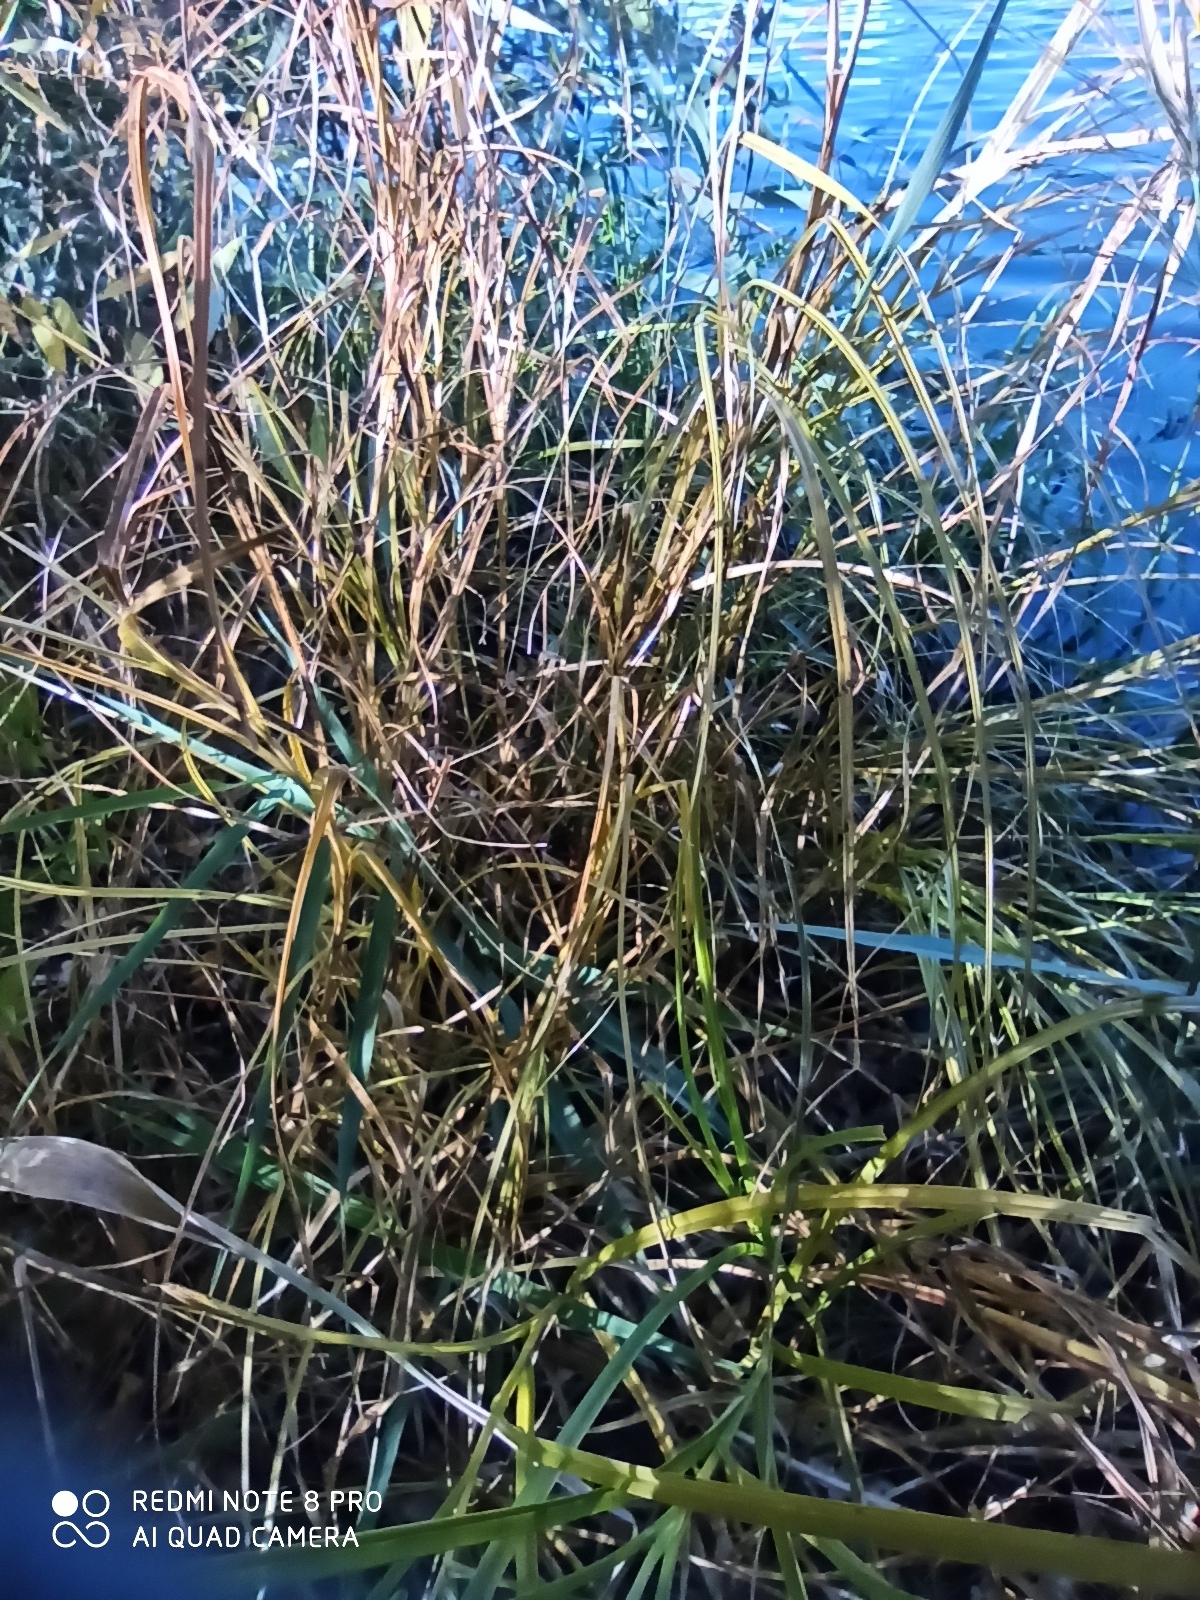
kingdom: Plantae
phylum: Tracheophyta
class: Liliopsida
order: Poales
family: Cyperaceae
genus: Bolboschoenus
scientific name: Bolboschoenus maritimus
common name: Sea club-rush
